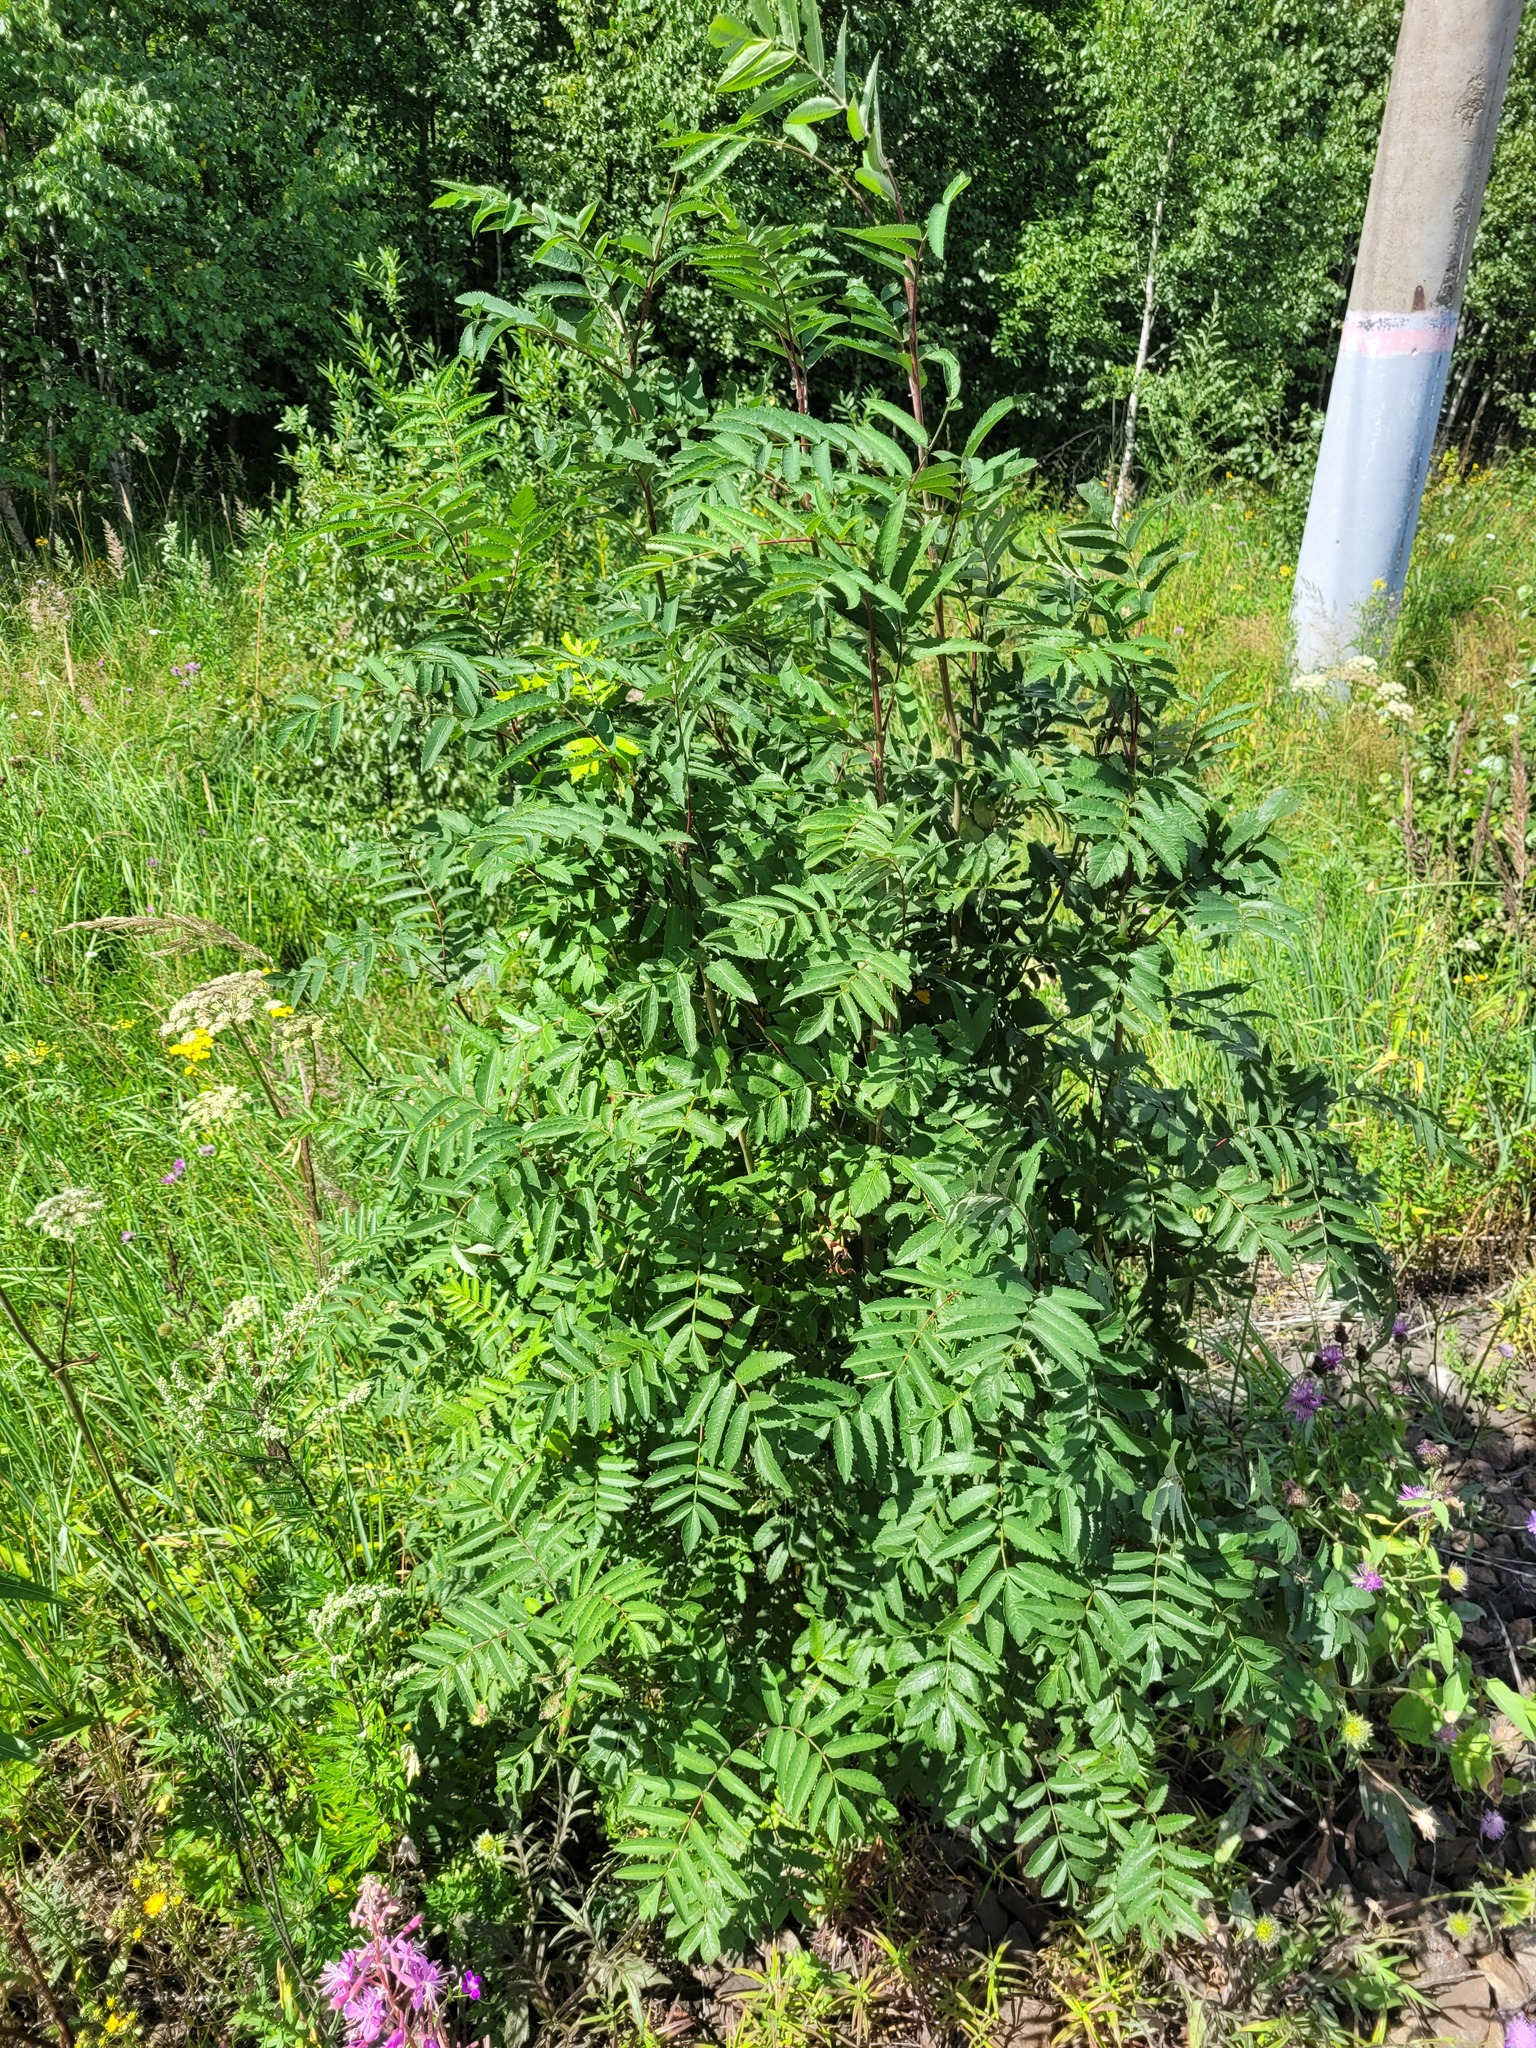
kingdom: Plantae
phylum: Tracheophyta
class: Magnoliopsida
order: Rosales
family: Rosaceae
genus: Sorbus
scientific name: Sorbus aucuparia
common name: Rowan
